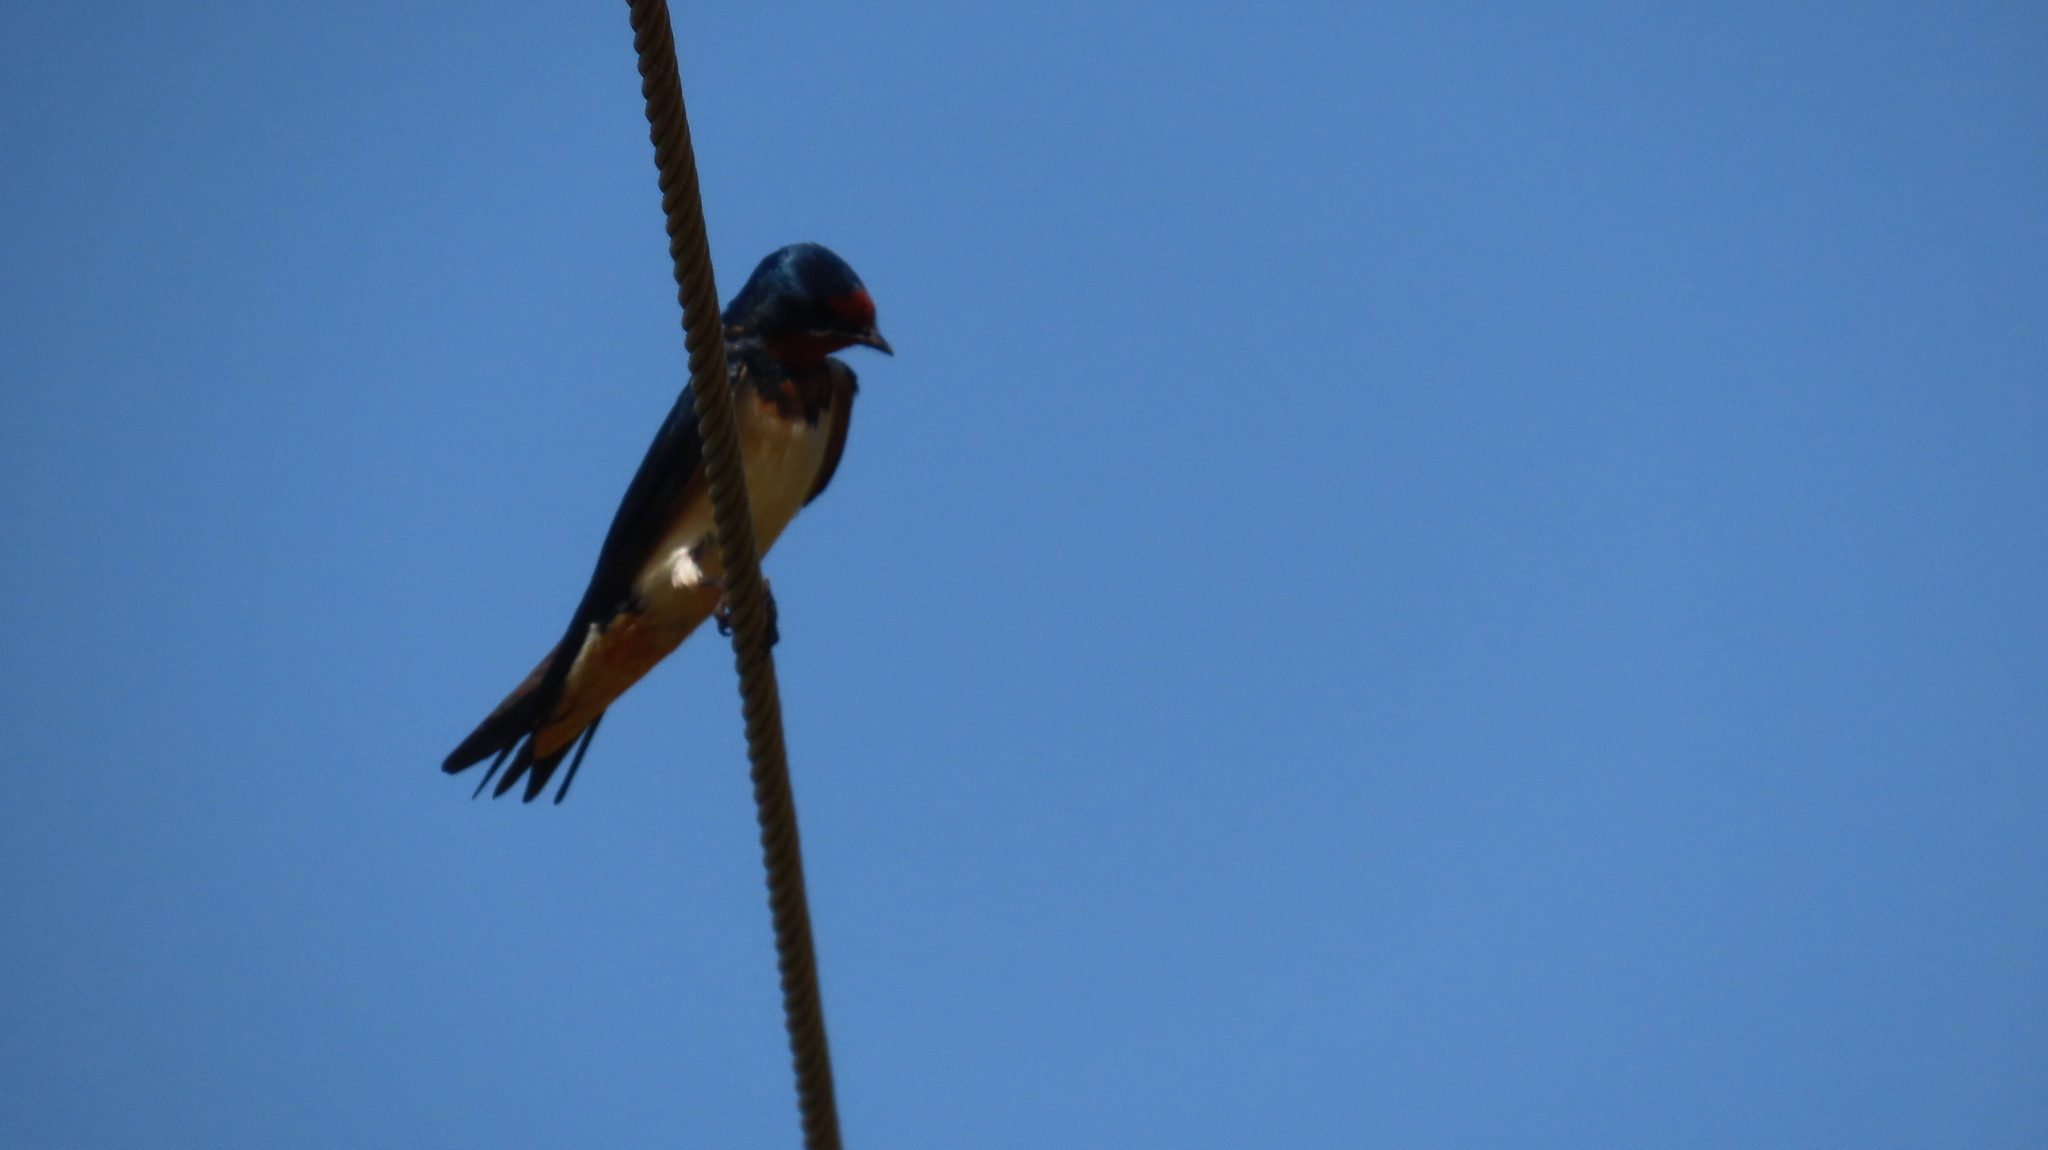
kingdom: Animalia
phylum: Chordata
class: Aves
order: Passeriformes
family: Hirundinidae
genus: Hirundo
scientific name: Hirundo rustica
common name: Barn swallow
